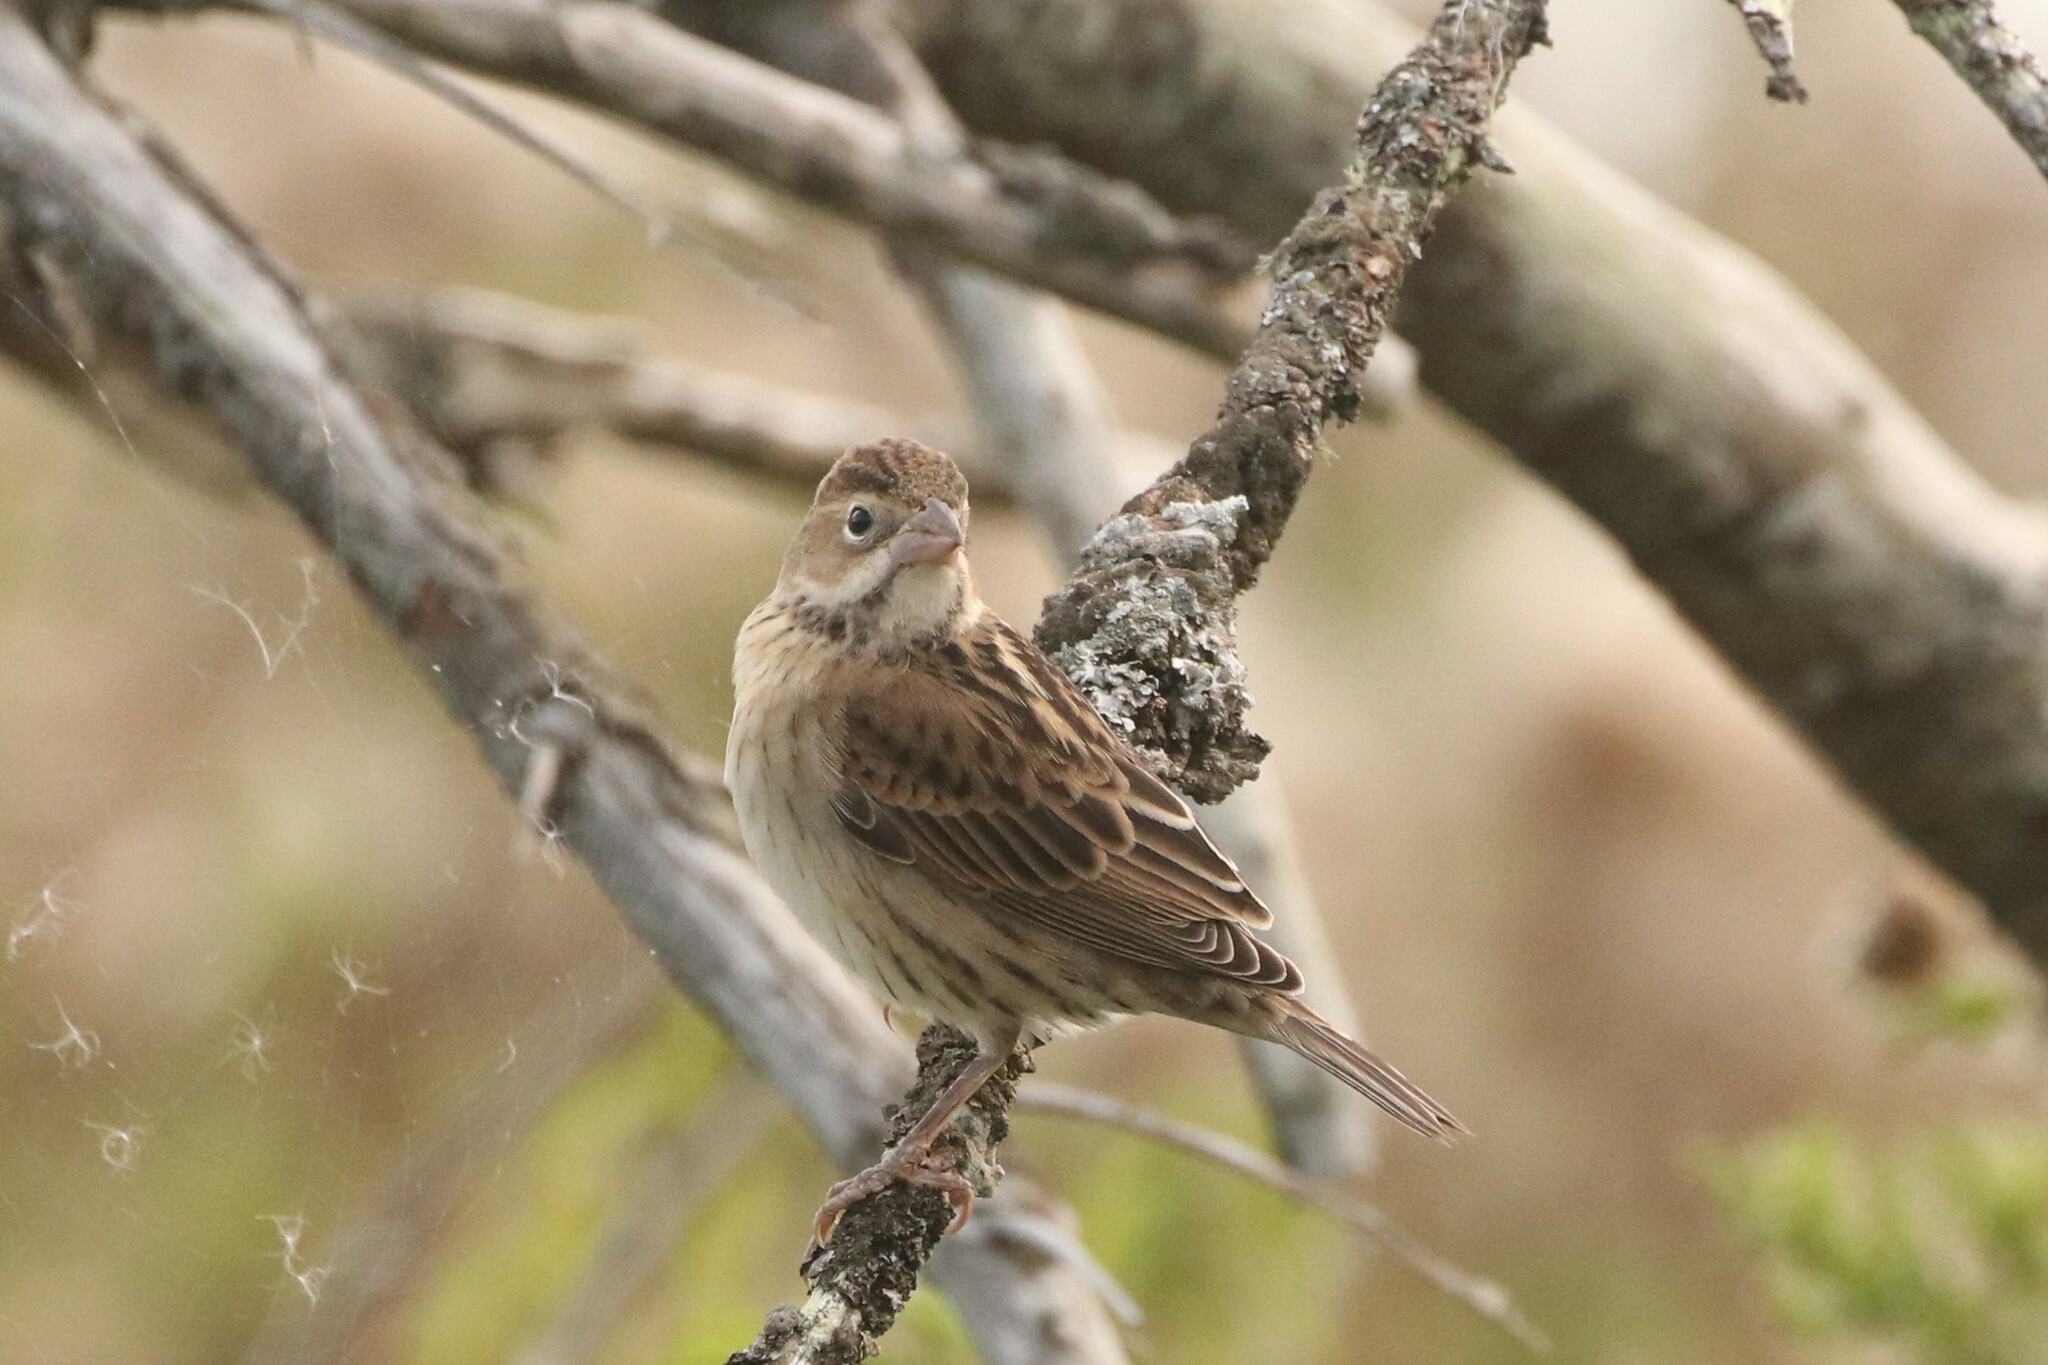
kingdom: Animalia
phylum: Chordata
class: Aves
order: Passeriformes
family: Cardinalidae
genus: Spiza
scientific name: Spiza americana
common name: Dickcissel
